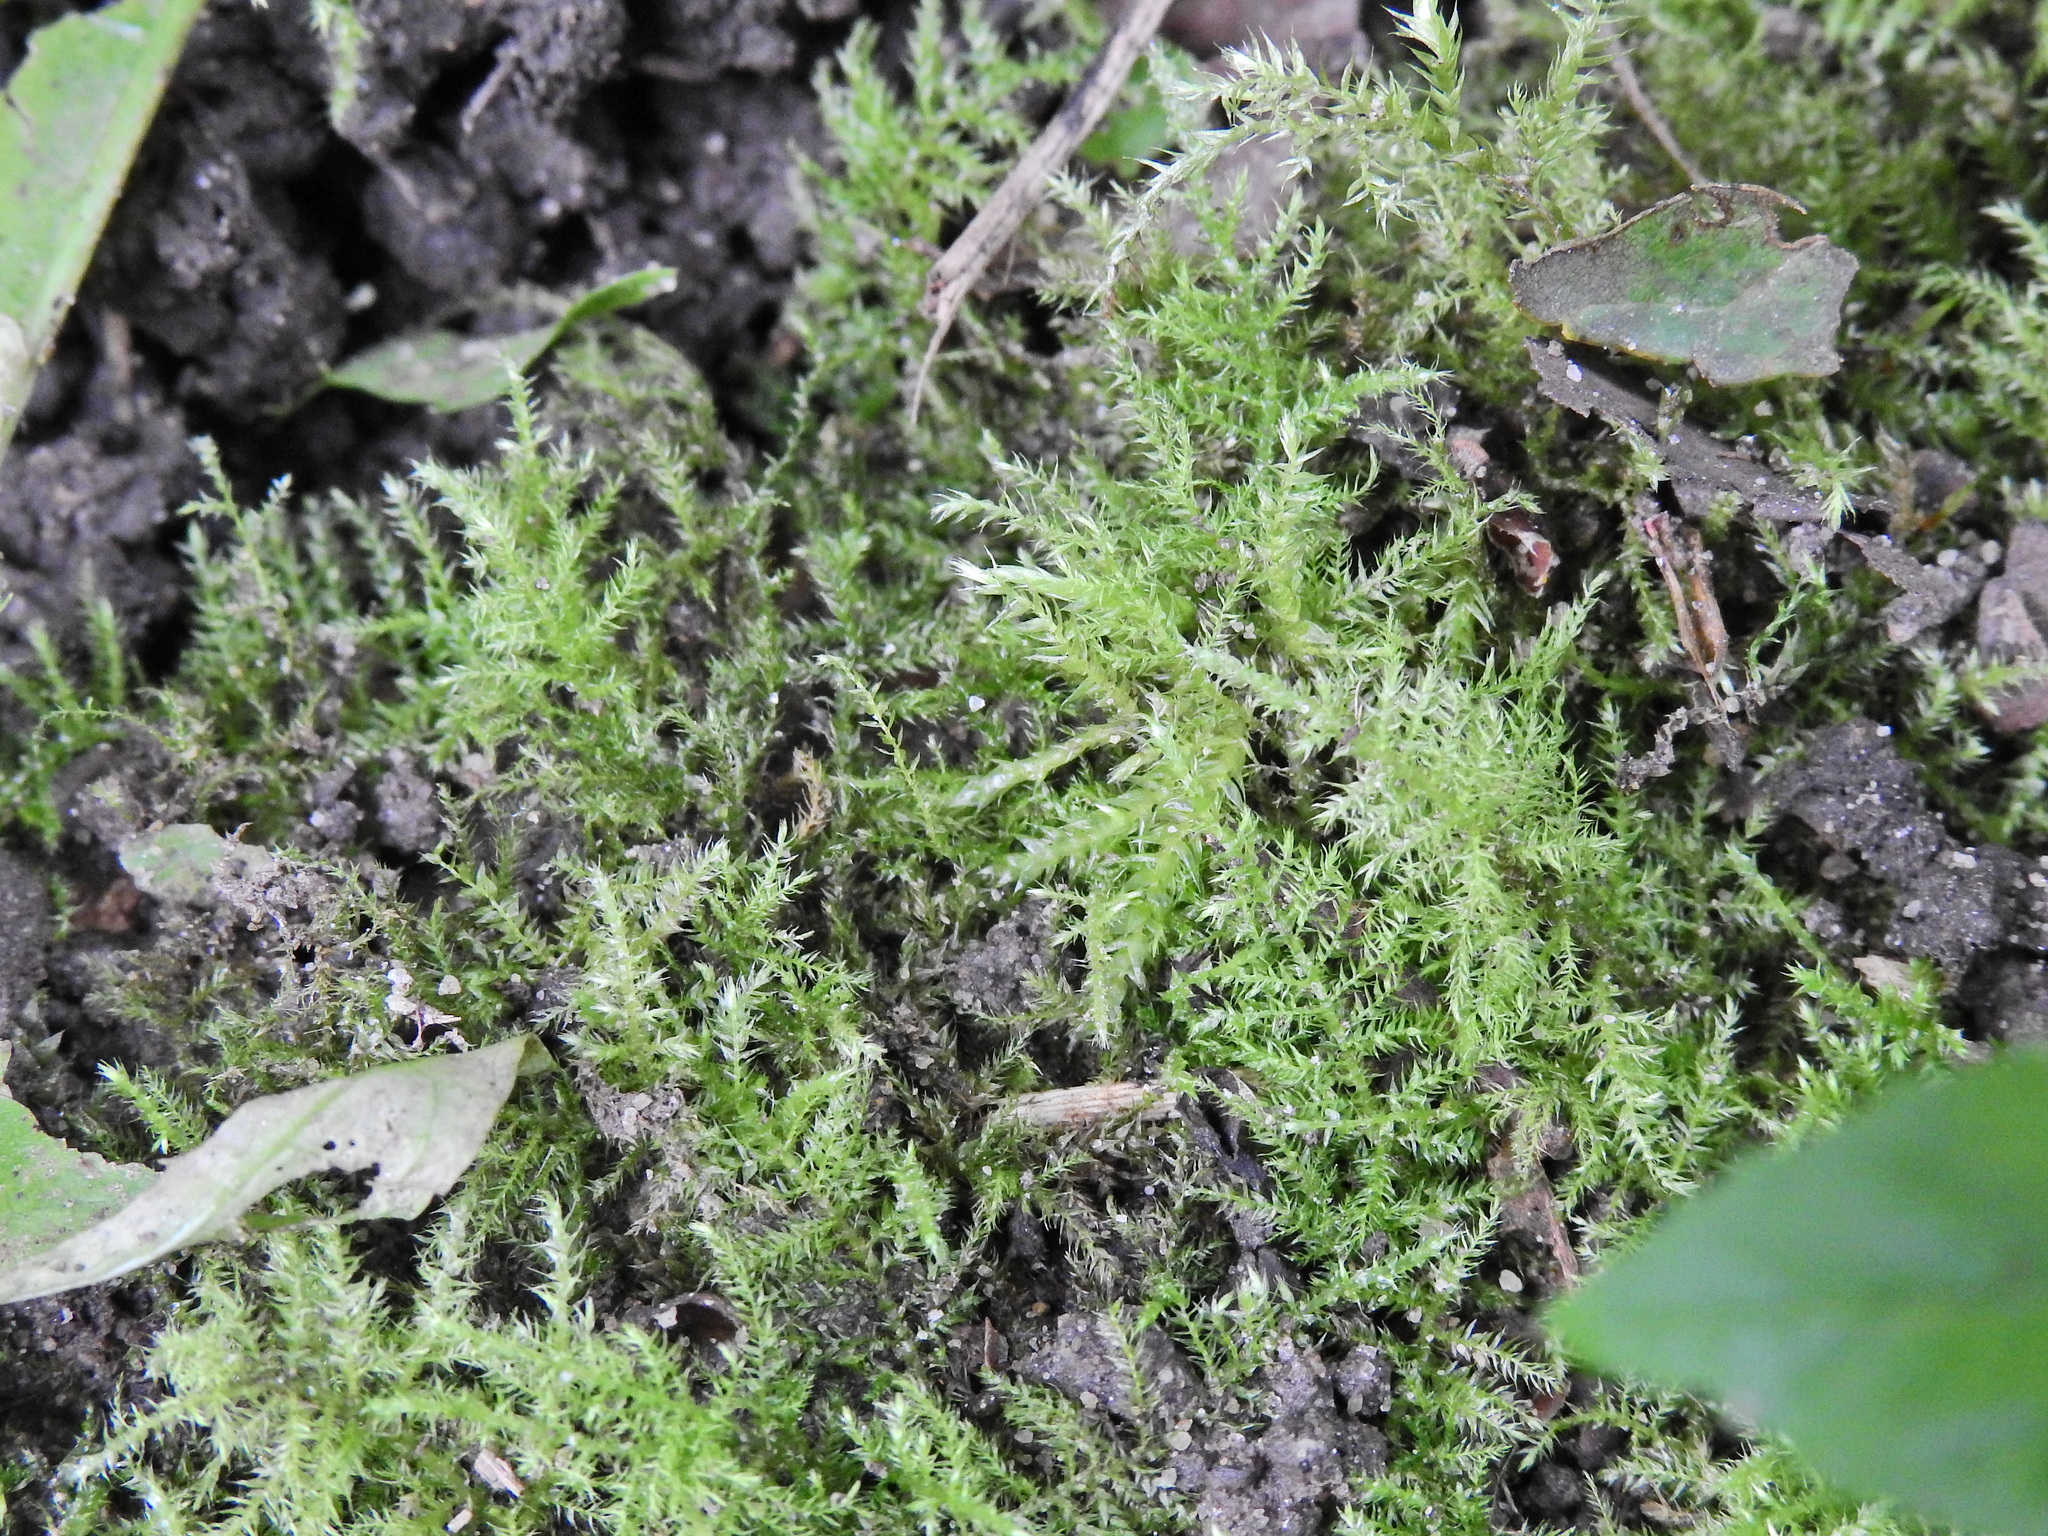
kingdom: Plantae
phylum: Bryophyta
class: Bryopsida
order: Hypnales
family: Brachytheciaceae
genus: Kindbergia
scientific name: Kindbergia praelonga
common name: Slender beaked moss
